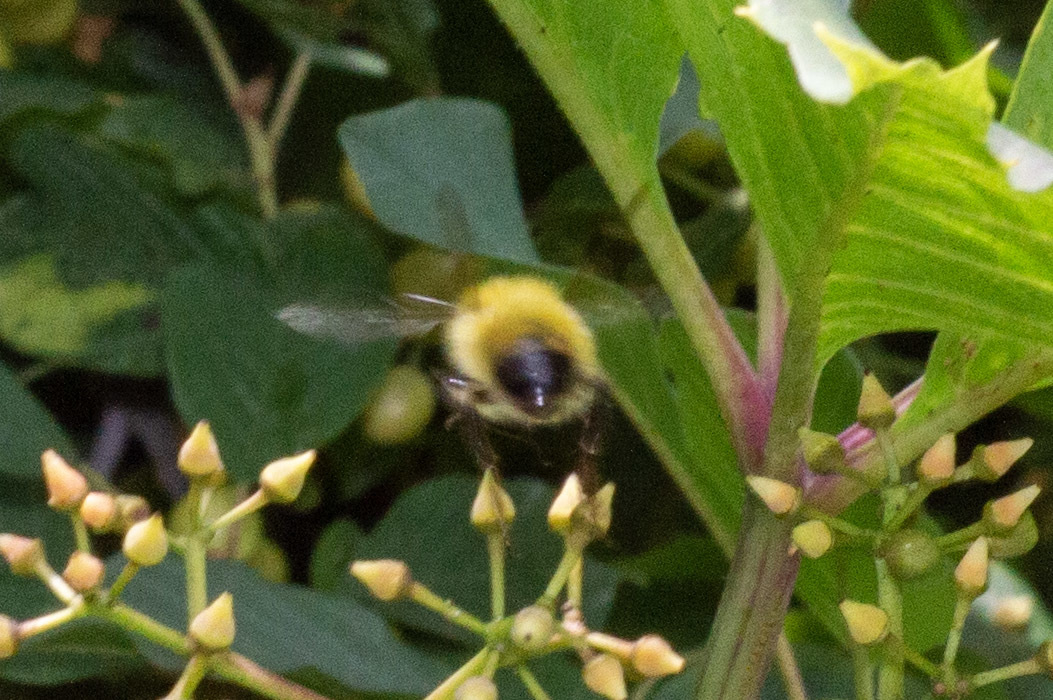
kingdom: Animalia
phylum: Arthropoda
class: Insecta
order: Hymenoptera
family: Apidae
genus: Bombus
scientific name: Bombus perplexus
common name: Confusing bumble bee
